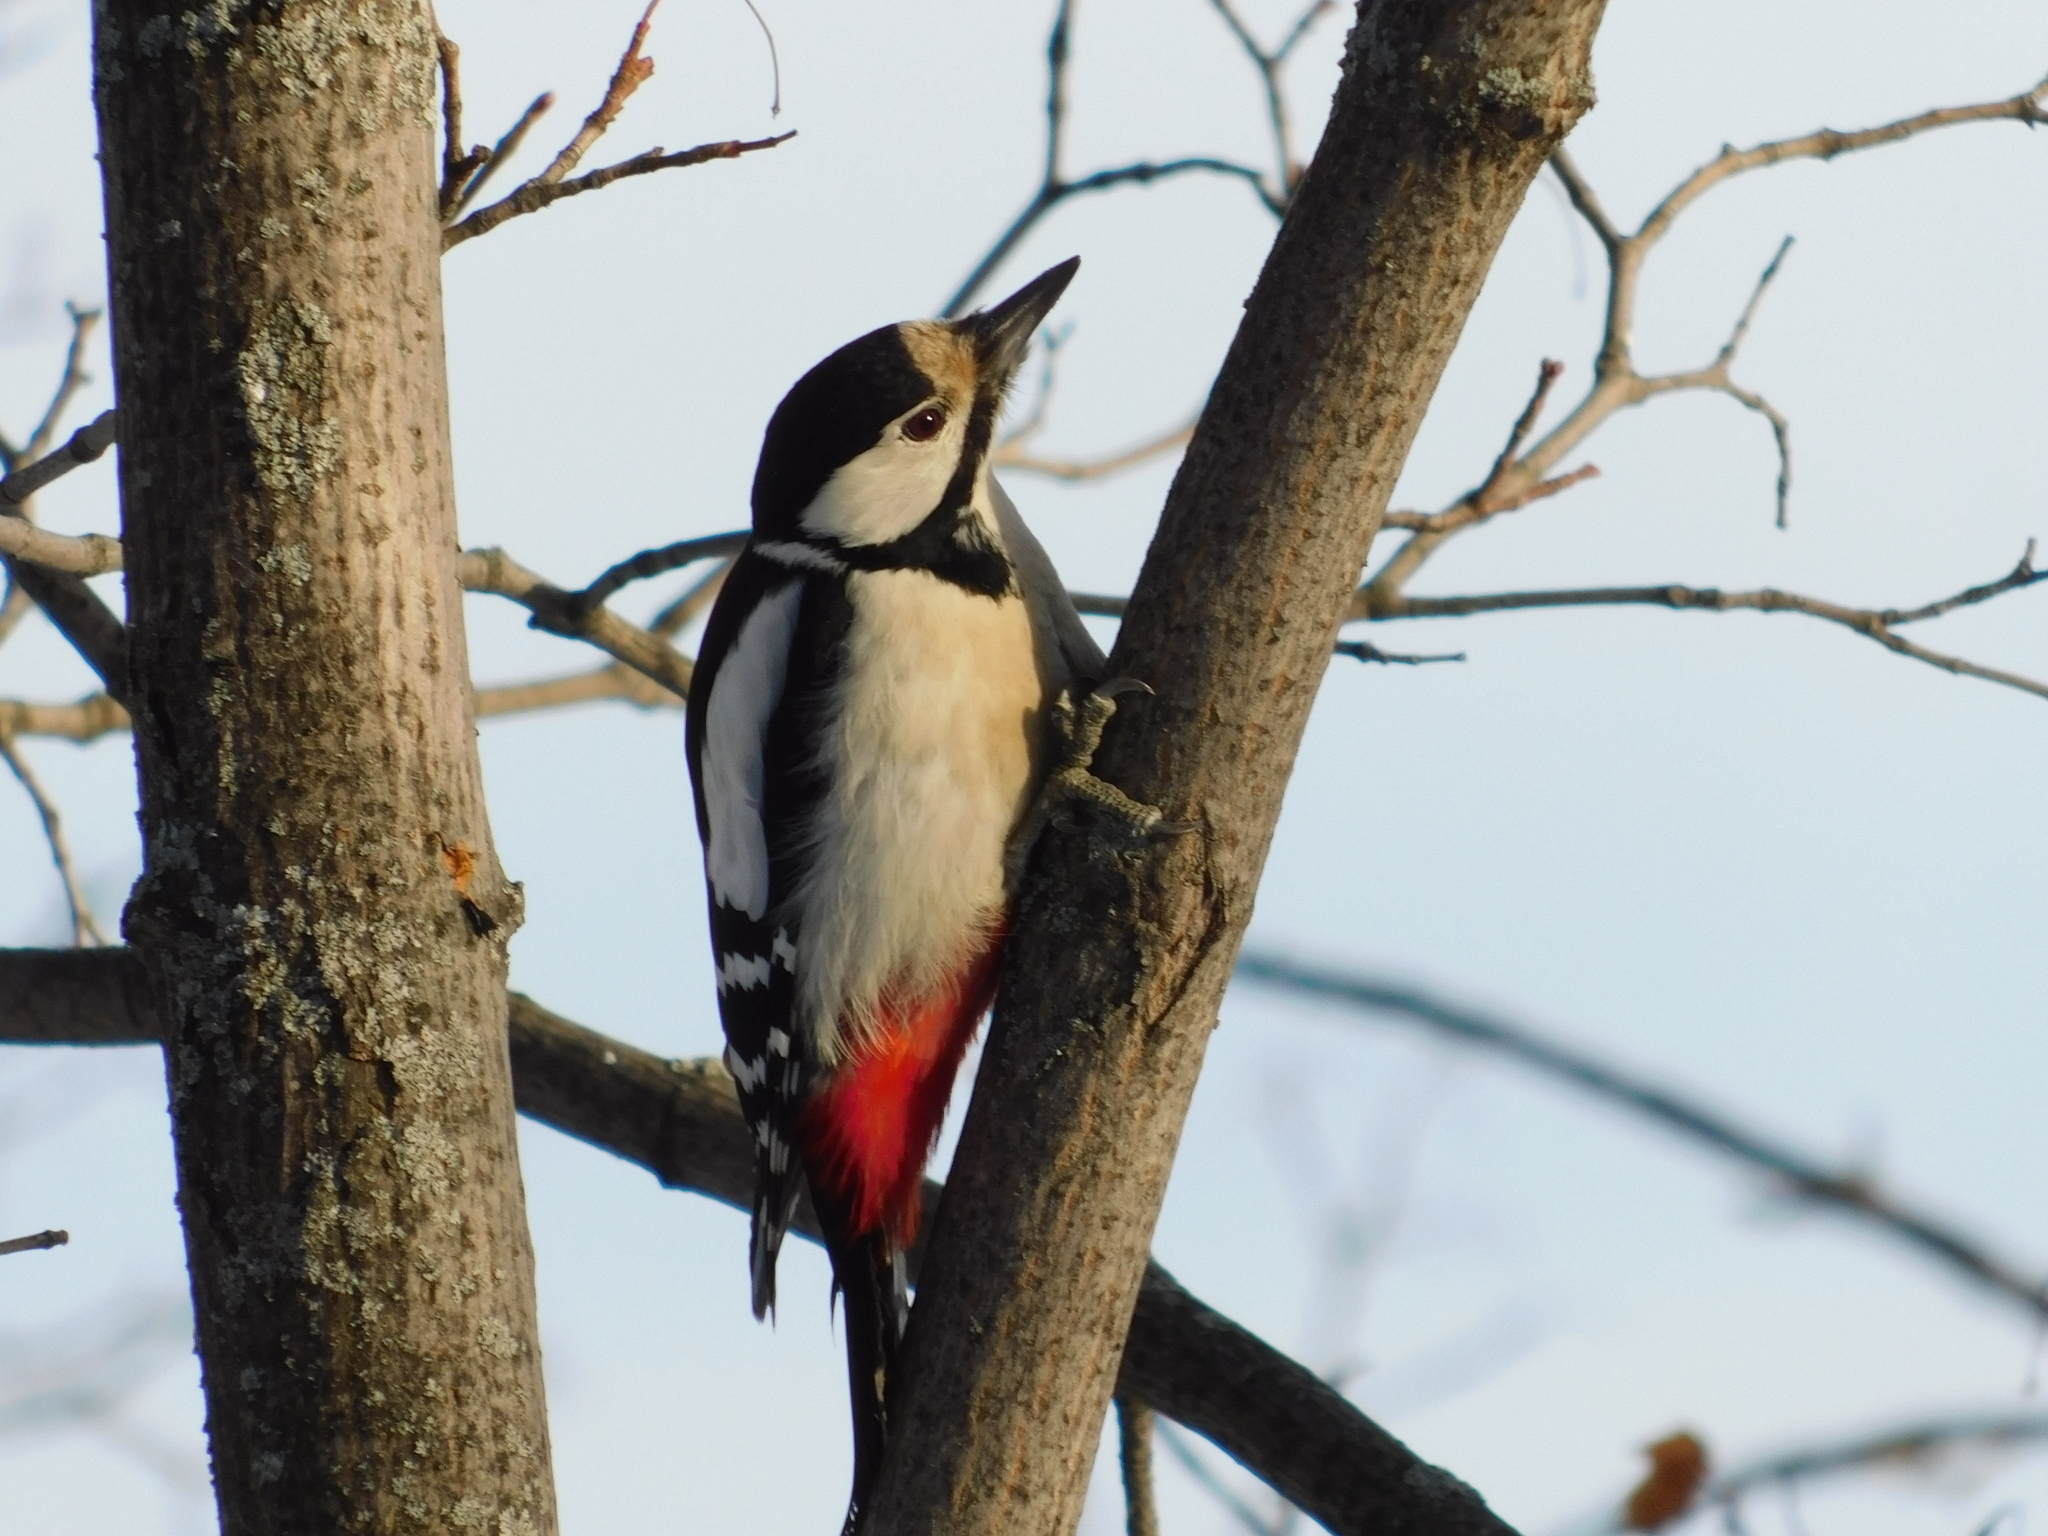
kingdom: Animalia
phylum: Chordata
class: Aves
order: Piciformes
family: Picidae
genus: Dendrocopos
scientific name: Dendrocopos major
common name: Great spotted woodpecker
